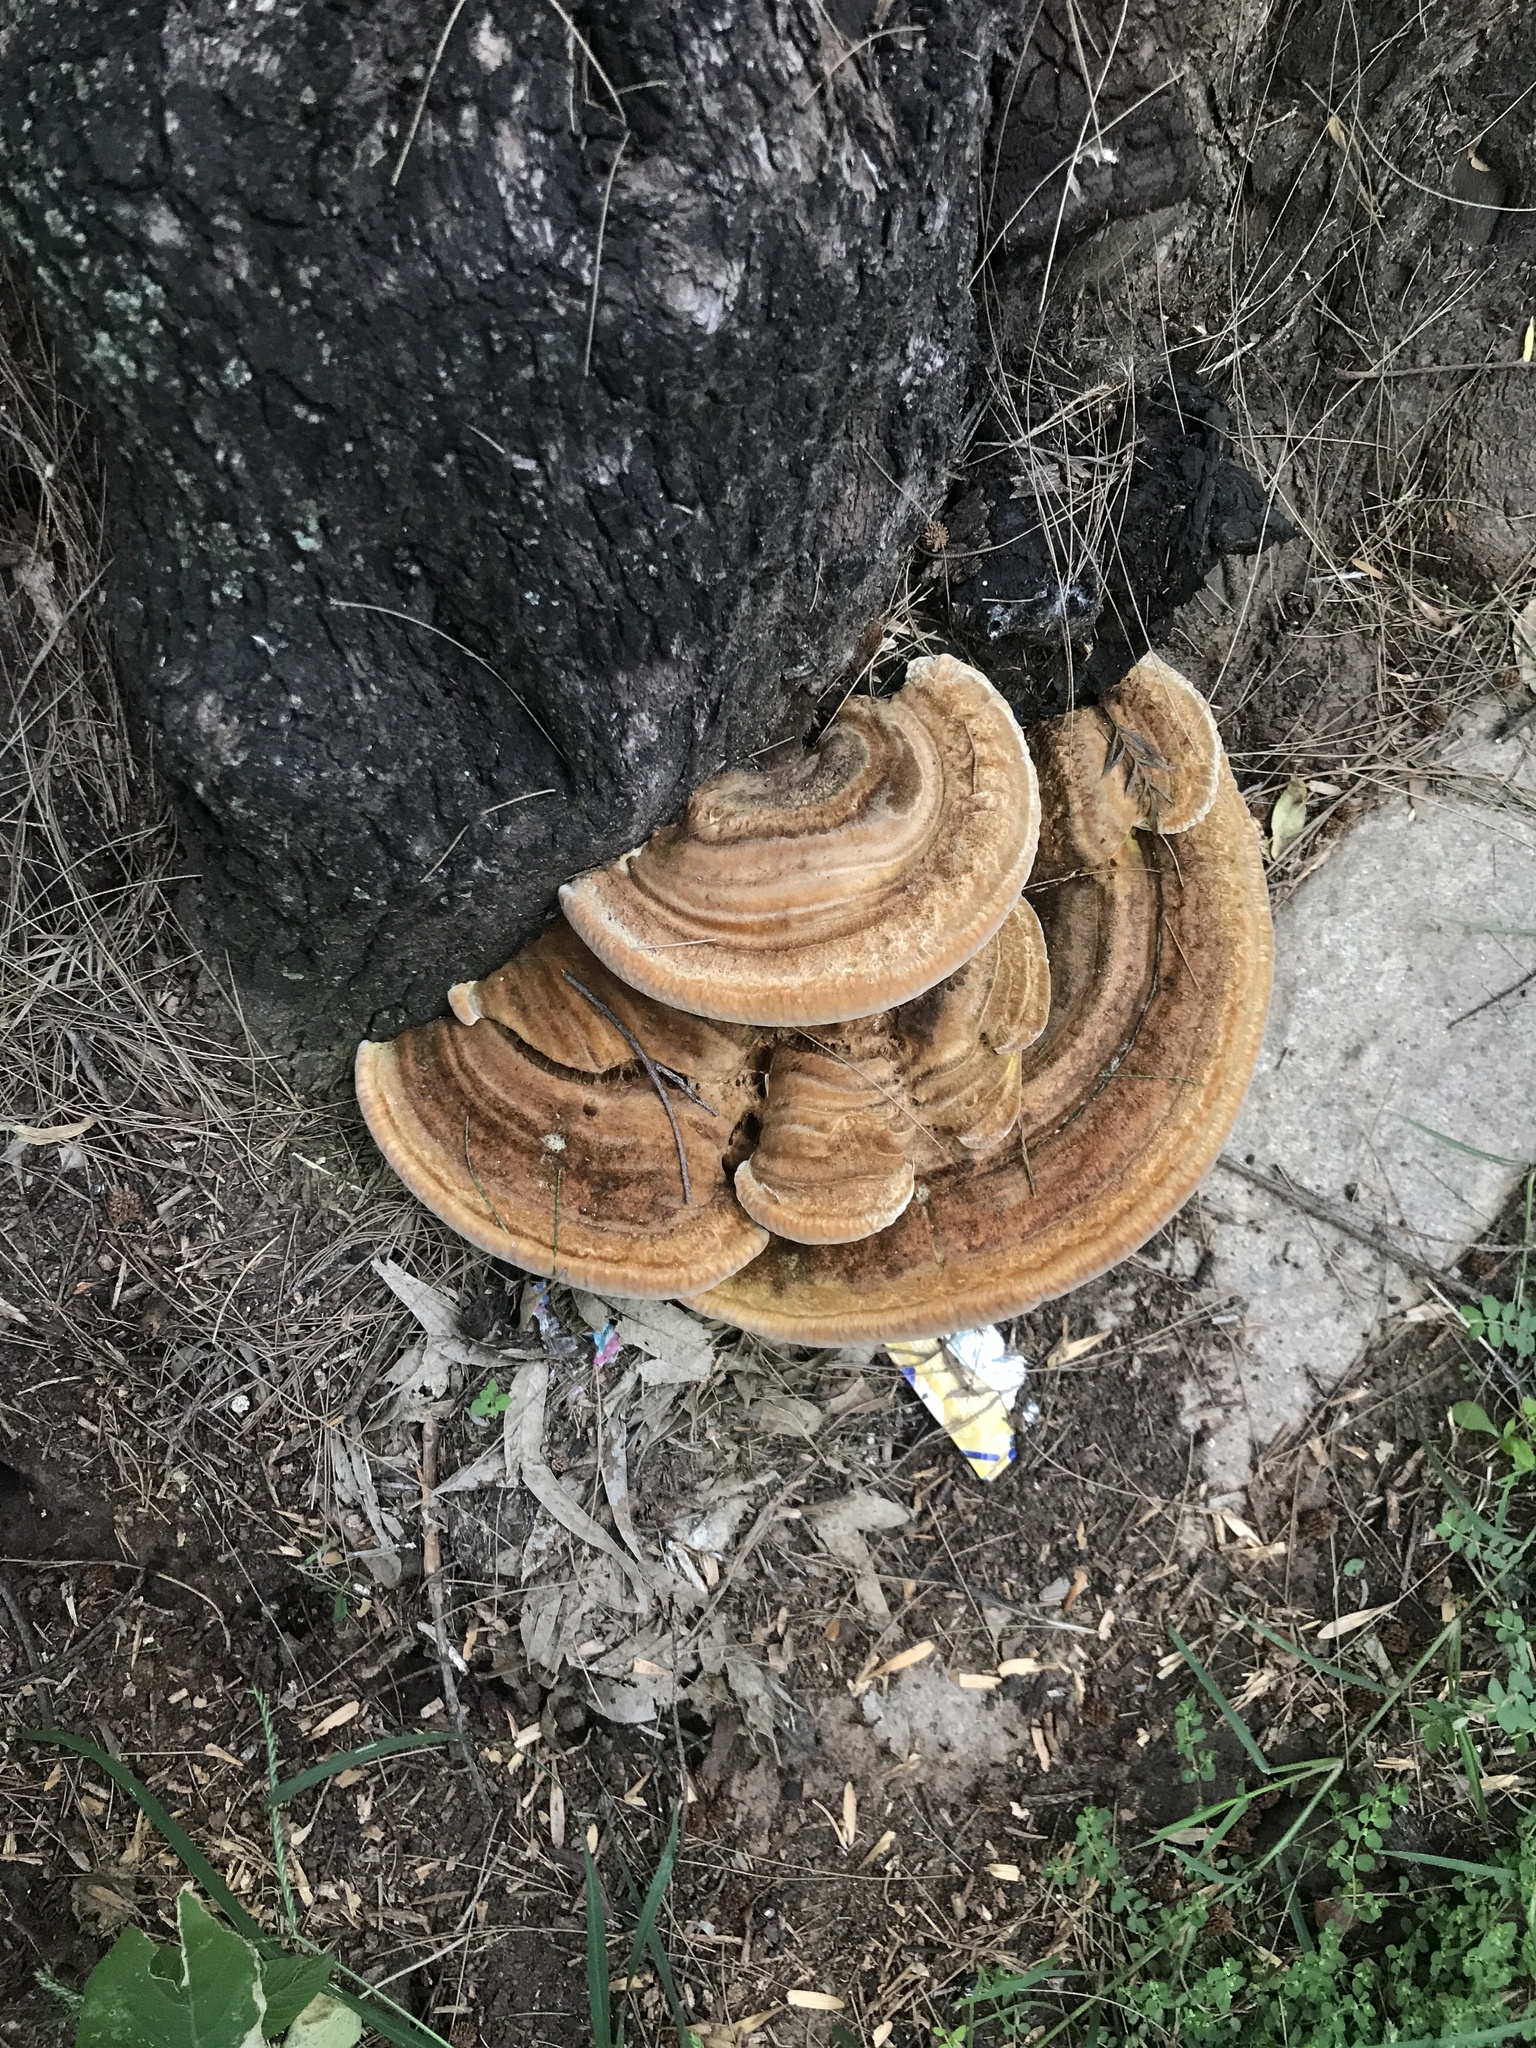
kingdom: Fungi
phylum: Basidiomycota
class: Agaricomycetes
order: Polyporales
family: Polyporaceae
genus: Trametes
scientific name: Trametes cubensis
